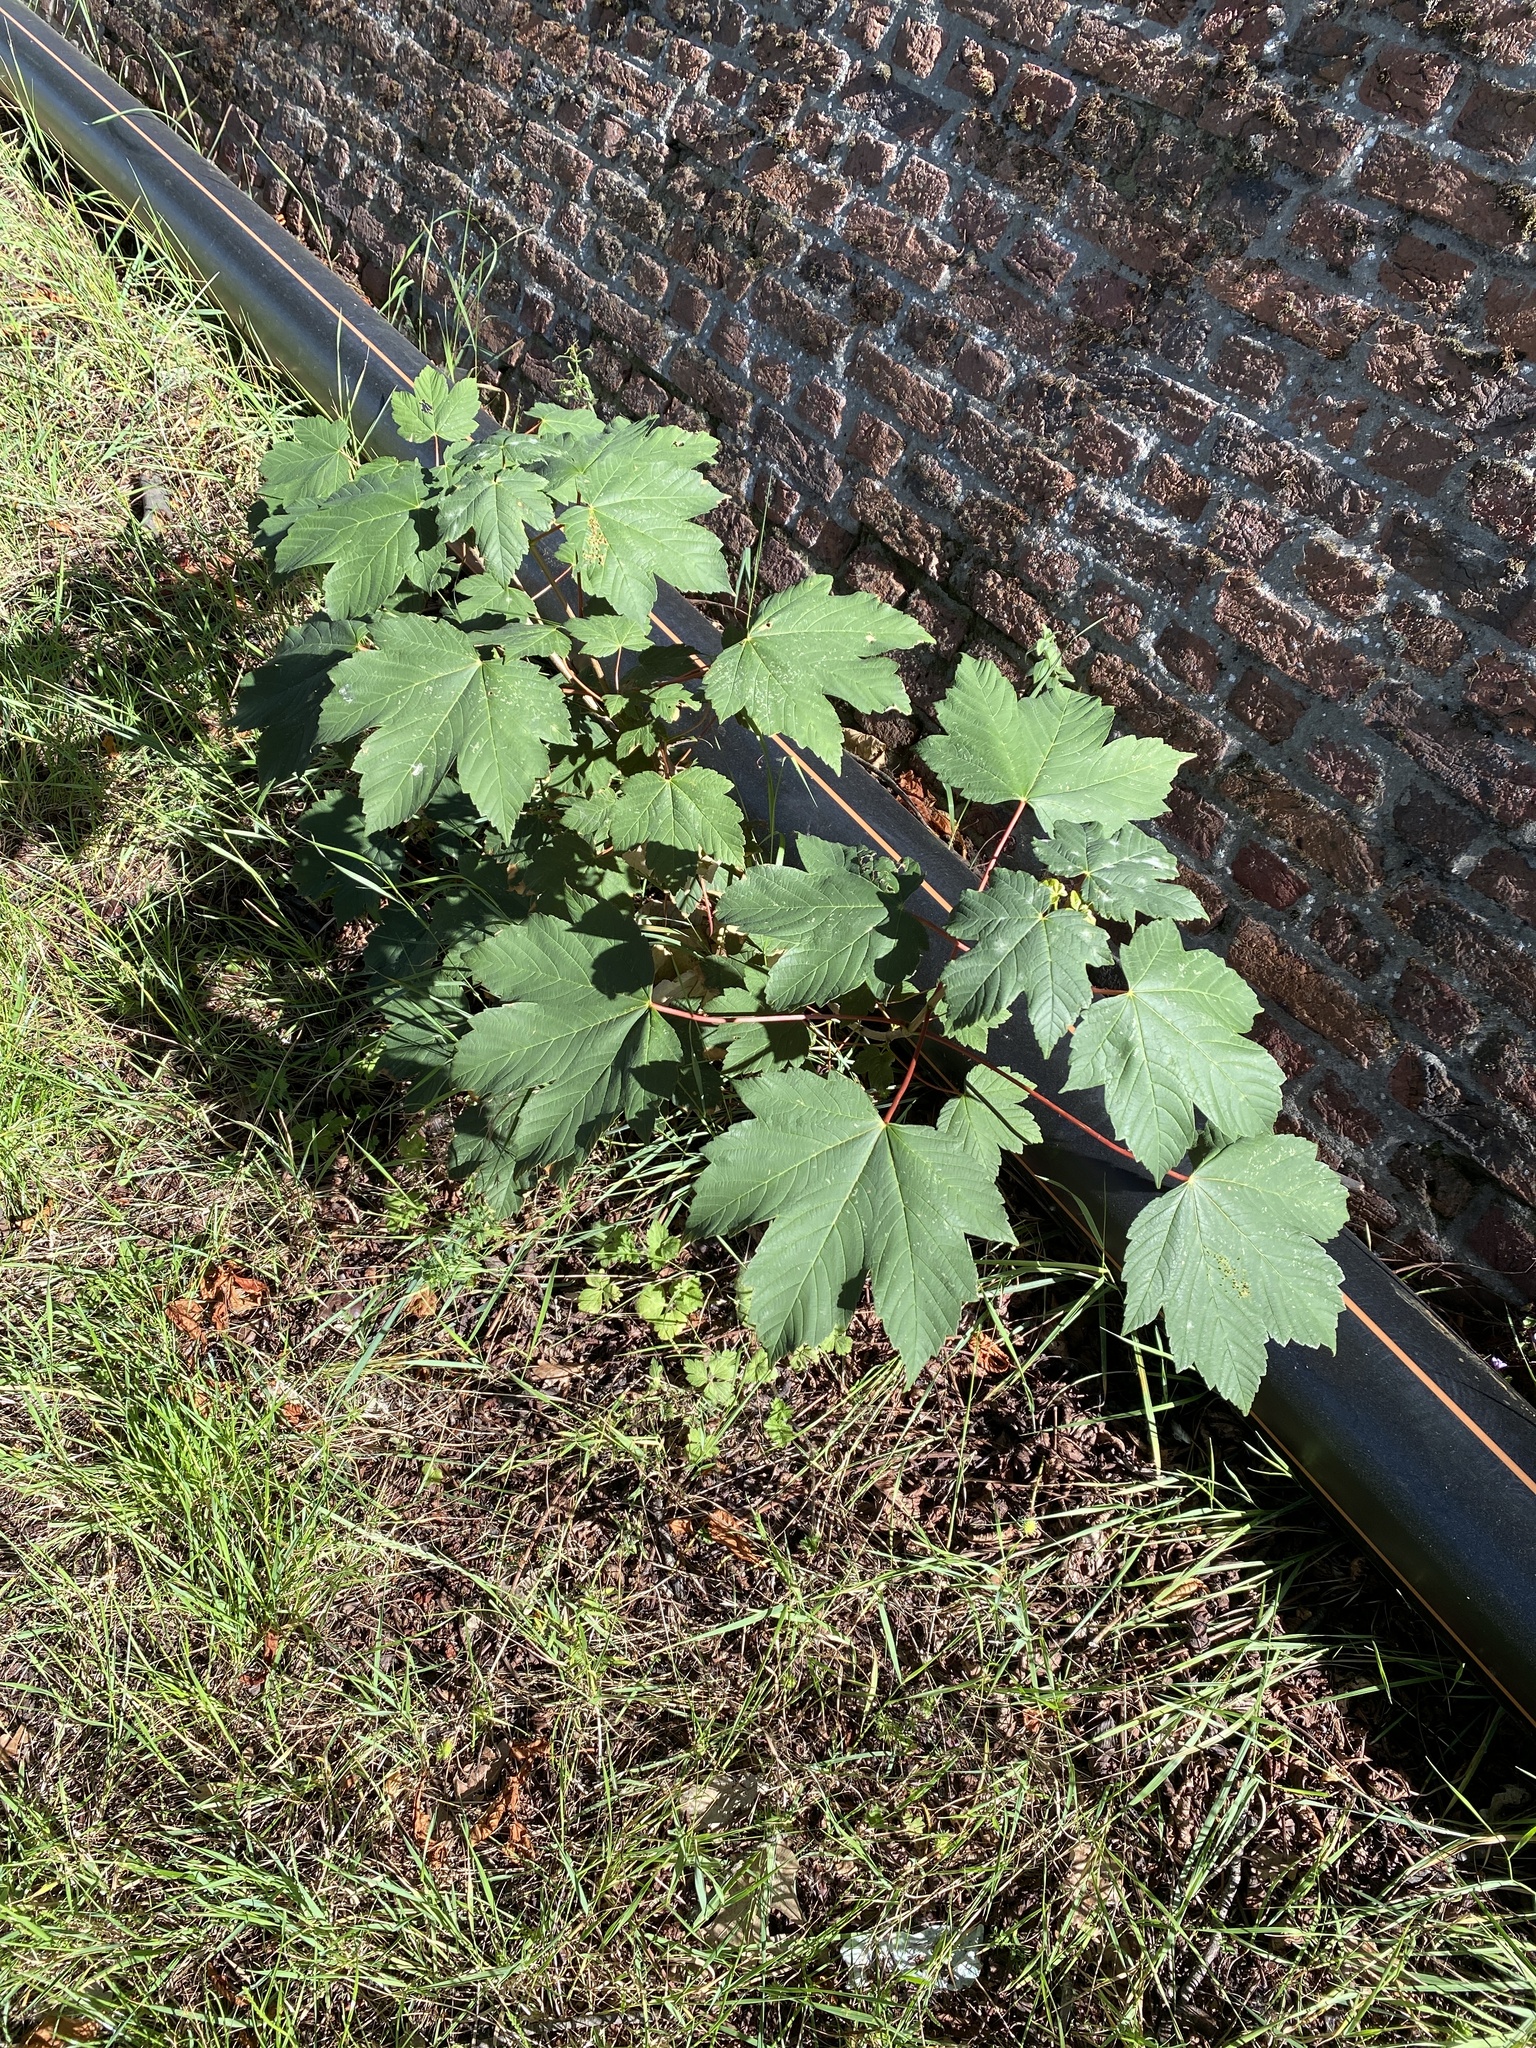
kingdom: Plantae
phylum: Tracheophyta
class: Magnoliopsida
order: Sapindales
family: Sapindaceae
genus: Acer
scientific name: Acer pseudoplatanus
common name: Sycamore
